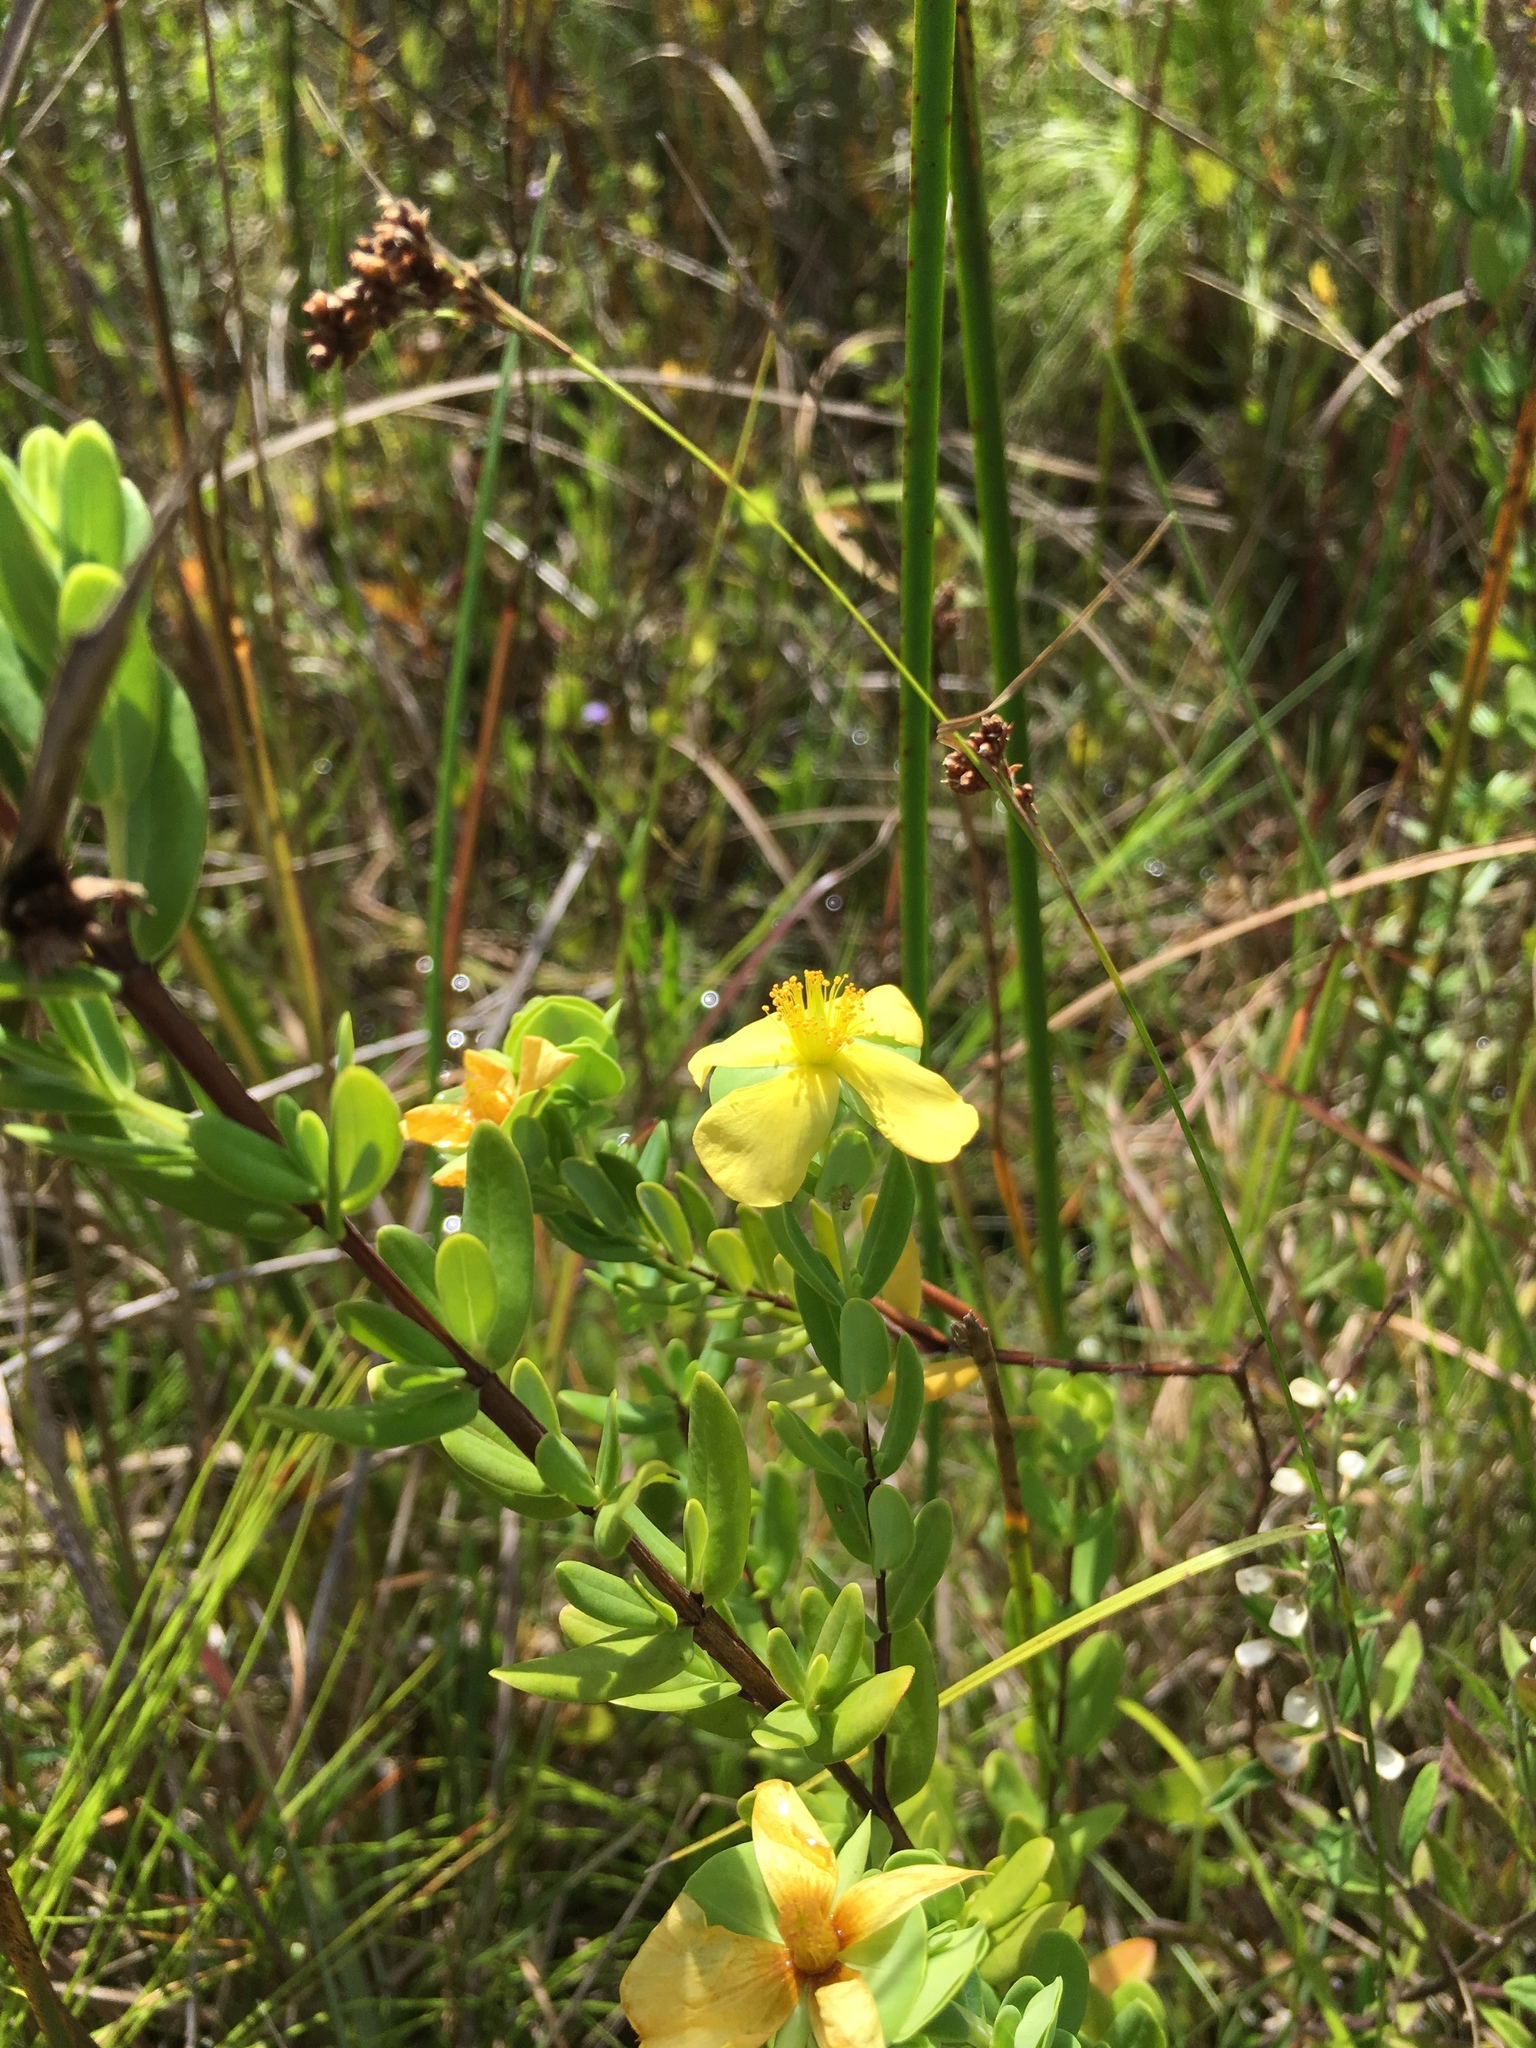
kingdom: Plantae
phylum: Tracheophyta
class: Magnoliopsida
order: Malpighiales
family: Hypericaceae
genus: Hypericum
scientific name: Hypericum crux-andreae
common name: St.-peter's-wort
